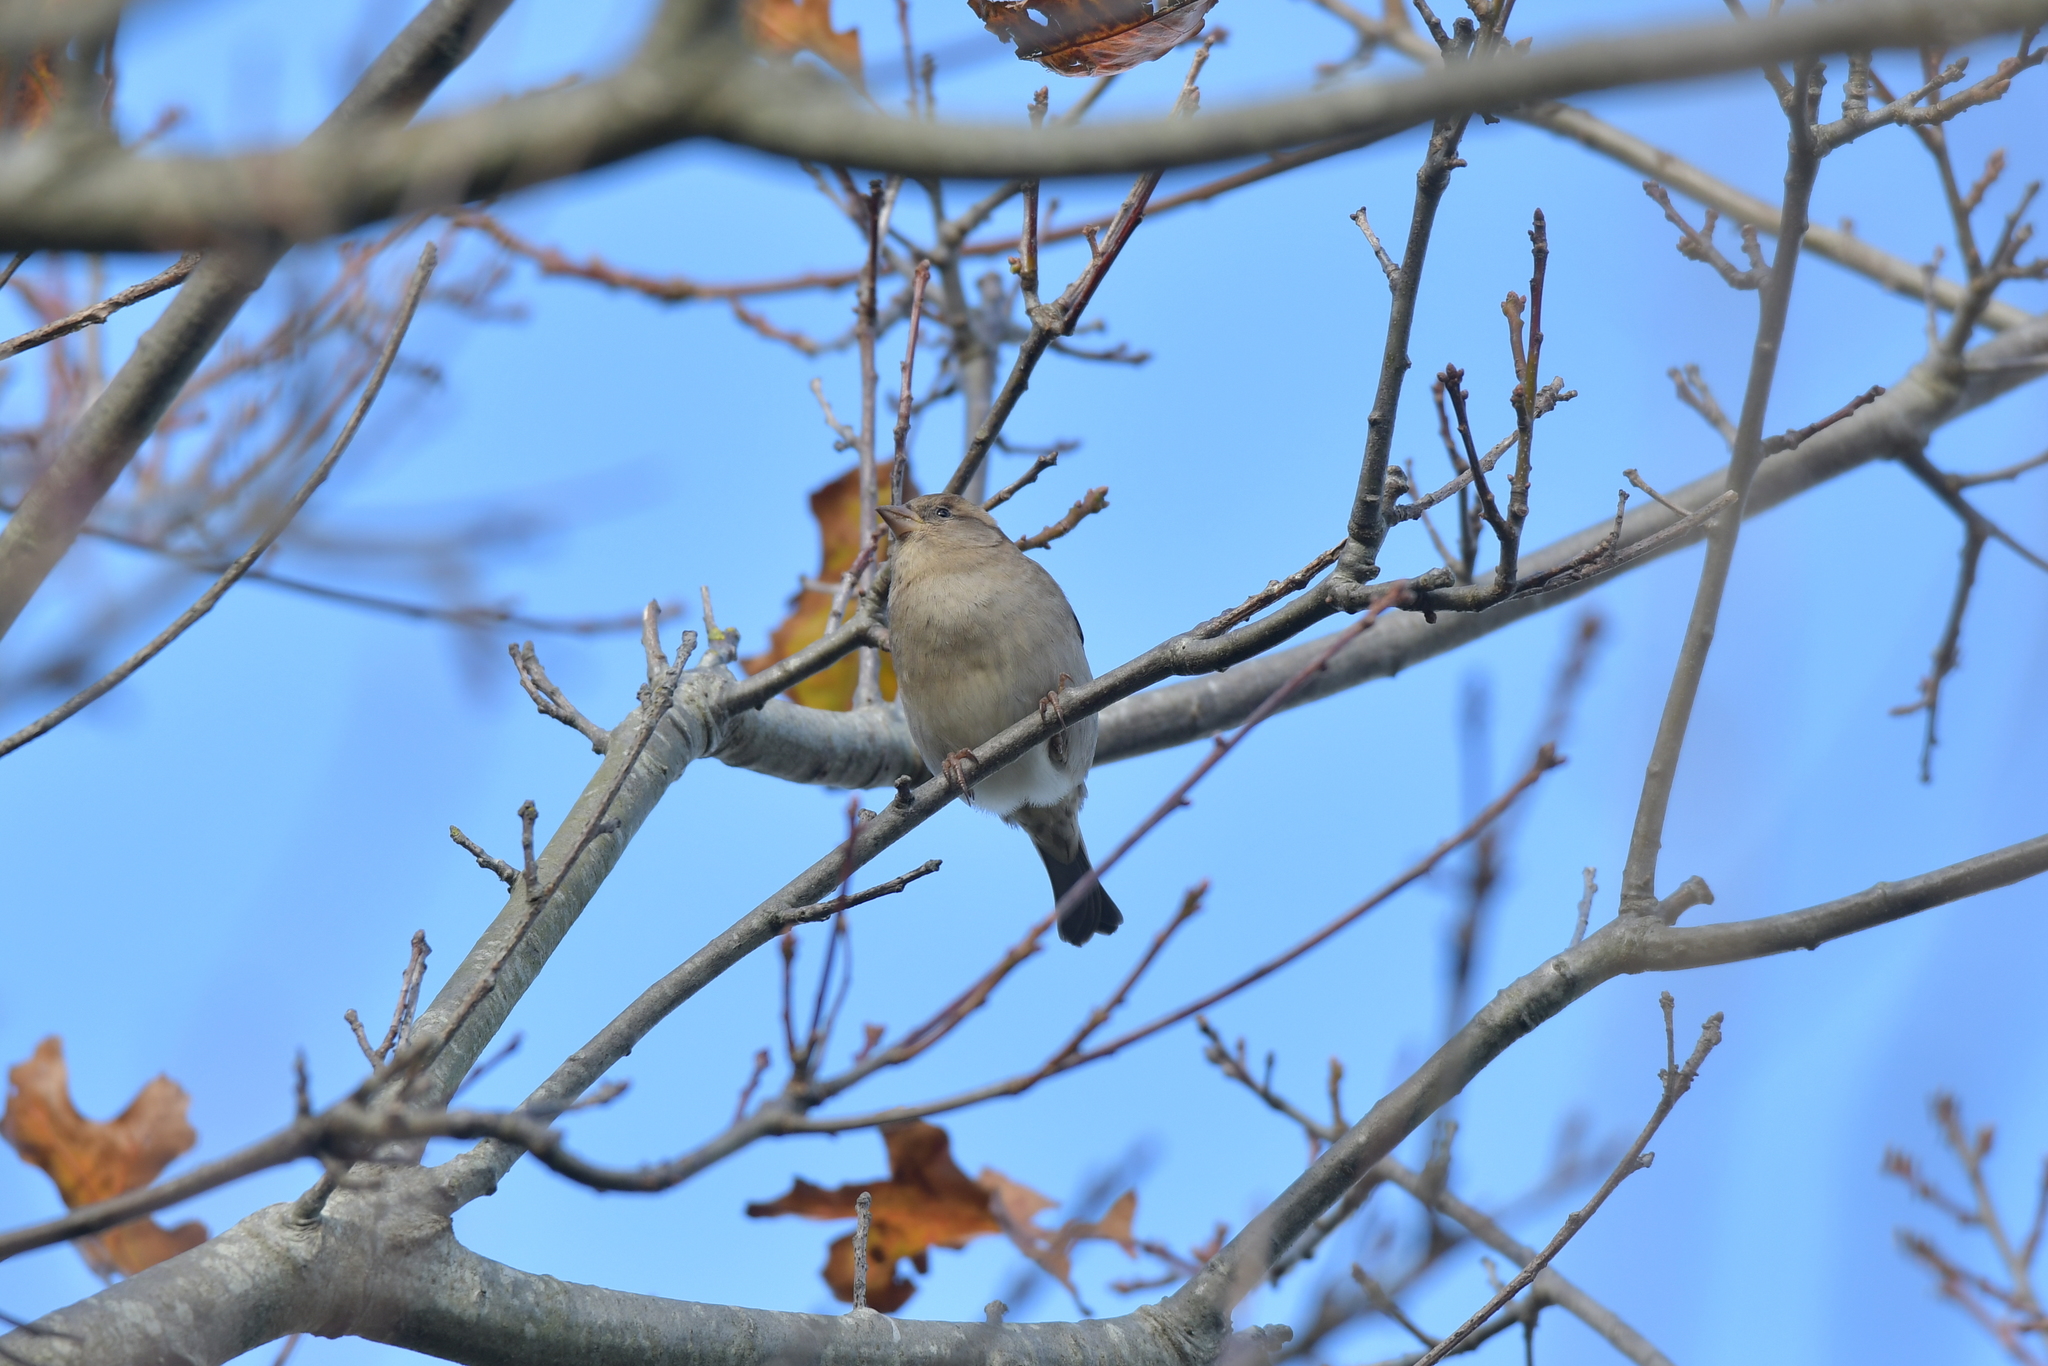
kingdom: Animalia
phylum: Chordata
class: Aves
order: Passeriformes
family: Passeridae
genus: Passer
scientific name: Passer domesticus
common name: House sparrow
